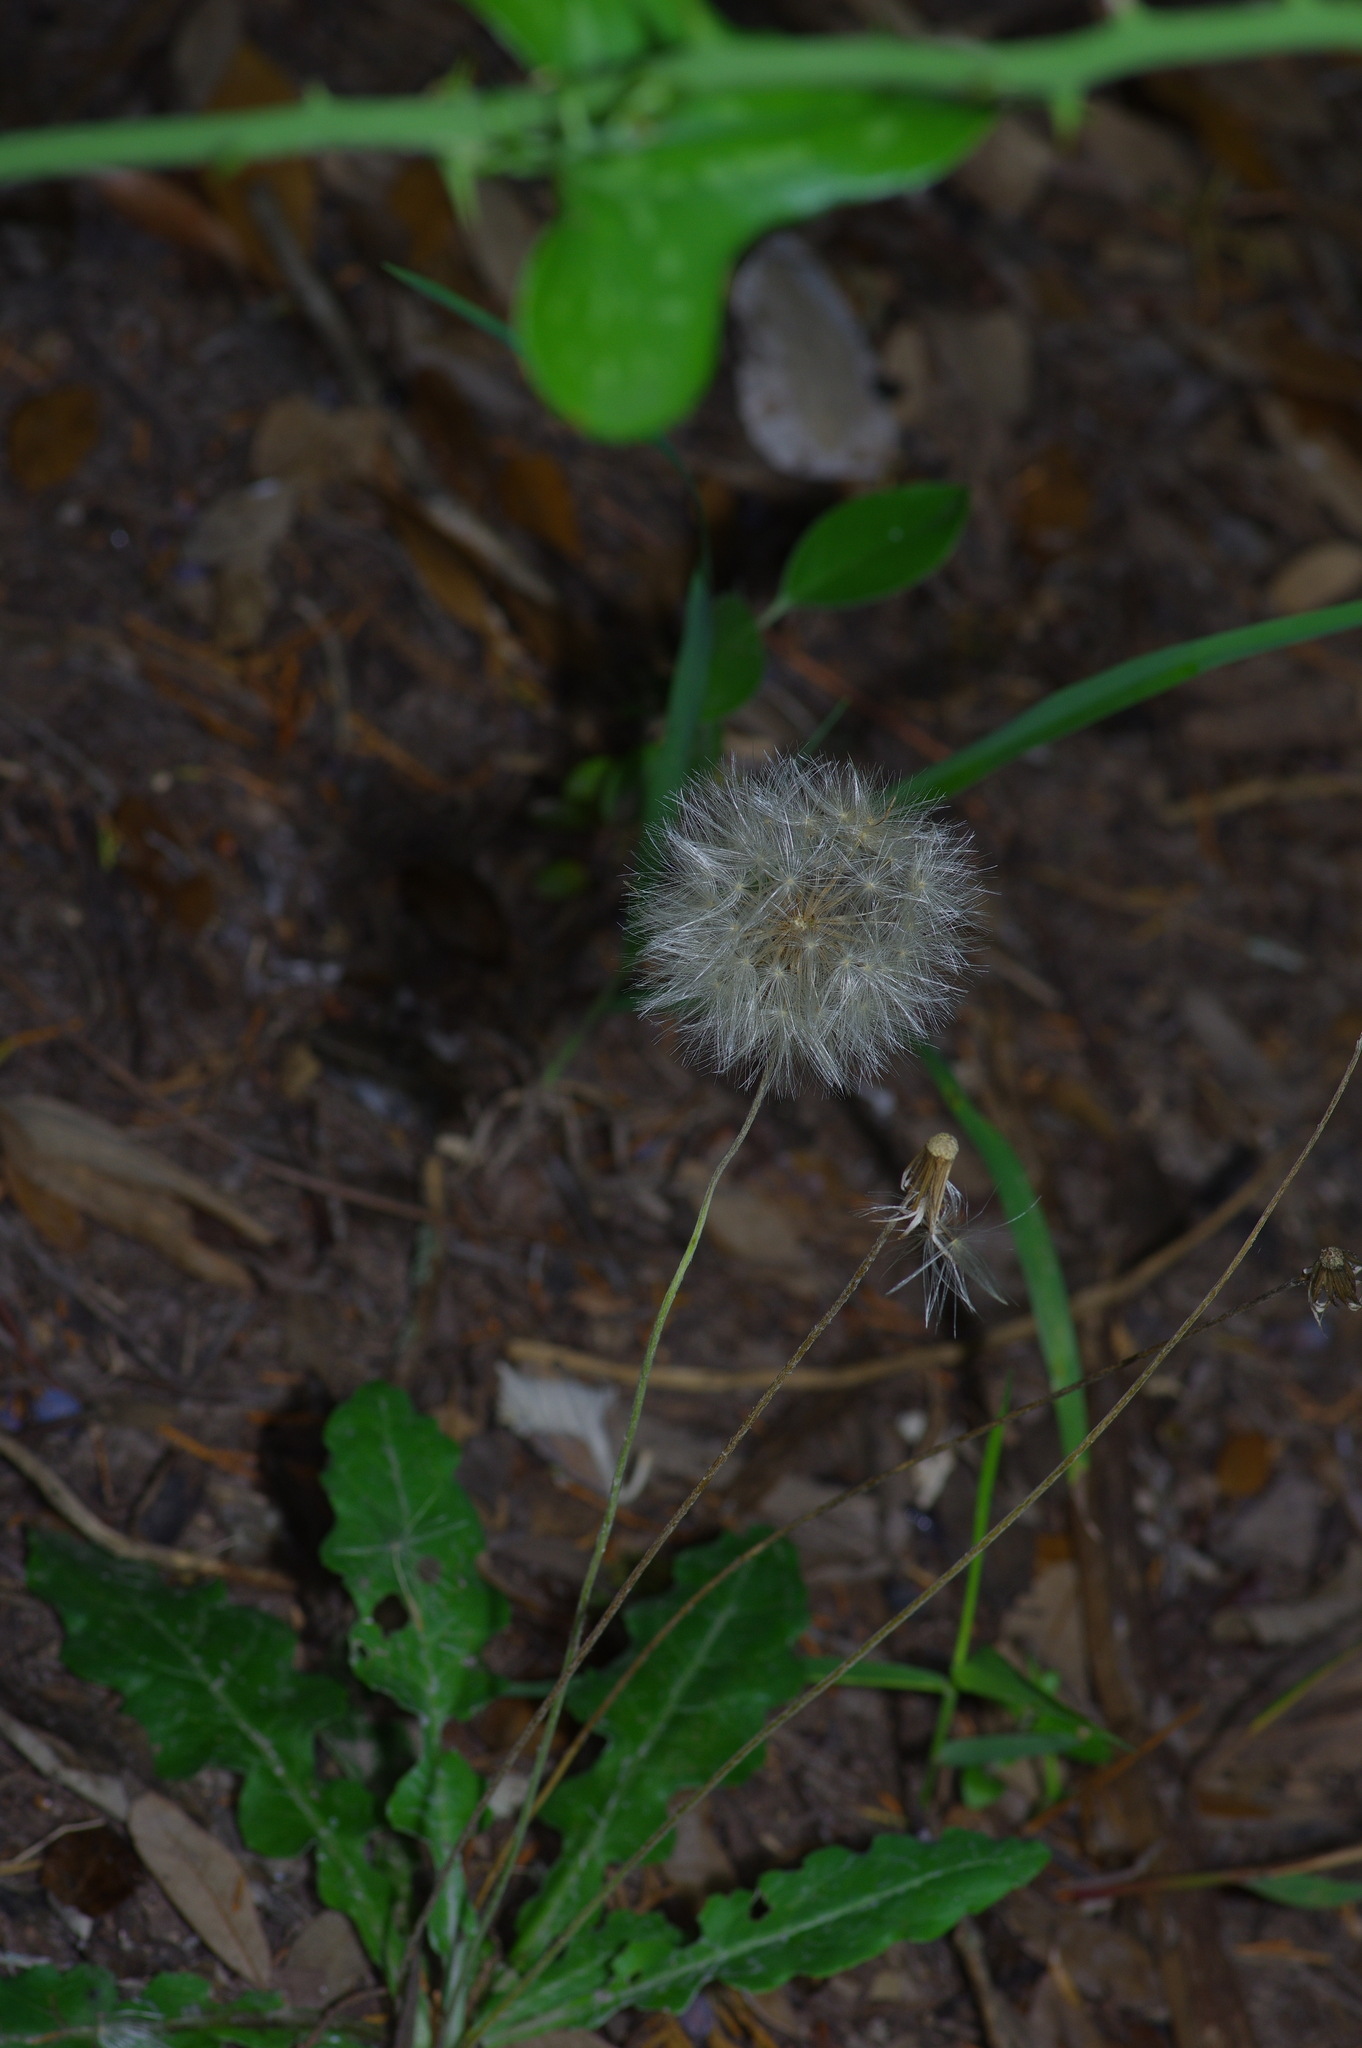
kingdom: Plantae
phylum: Tracheophyta
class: Magnoliopsida
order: Asterales
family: Asteraceae
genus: Chaptalia
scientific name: Chaptalia texana
